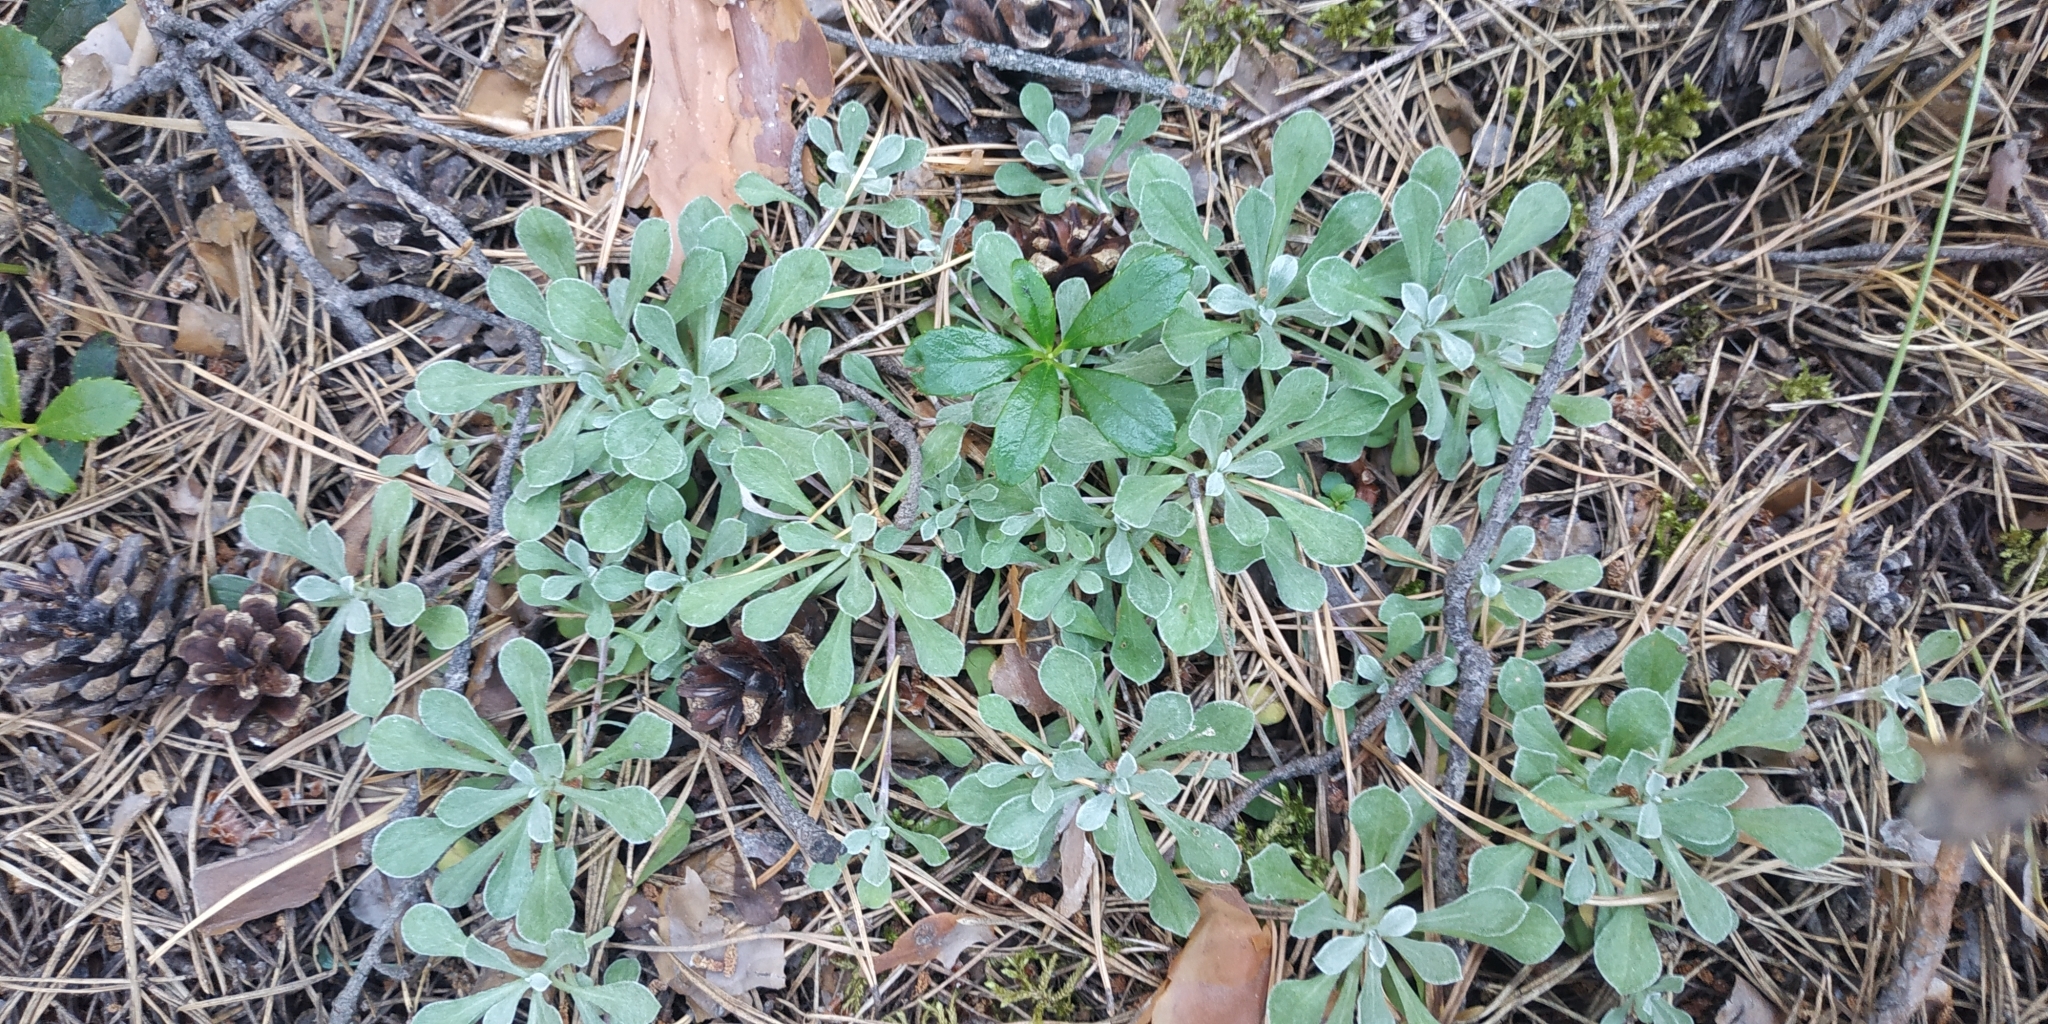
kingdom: Plantae
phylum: Tracheophyta
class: Magnoliopsida
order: Asterales
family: Asteraceae
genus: Antennaria
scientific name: Antennaria dioica
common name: Mountain everlasting
